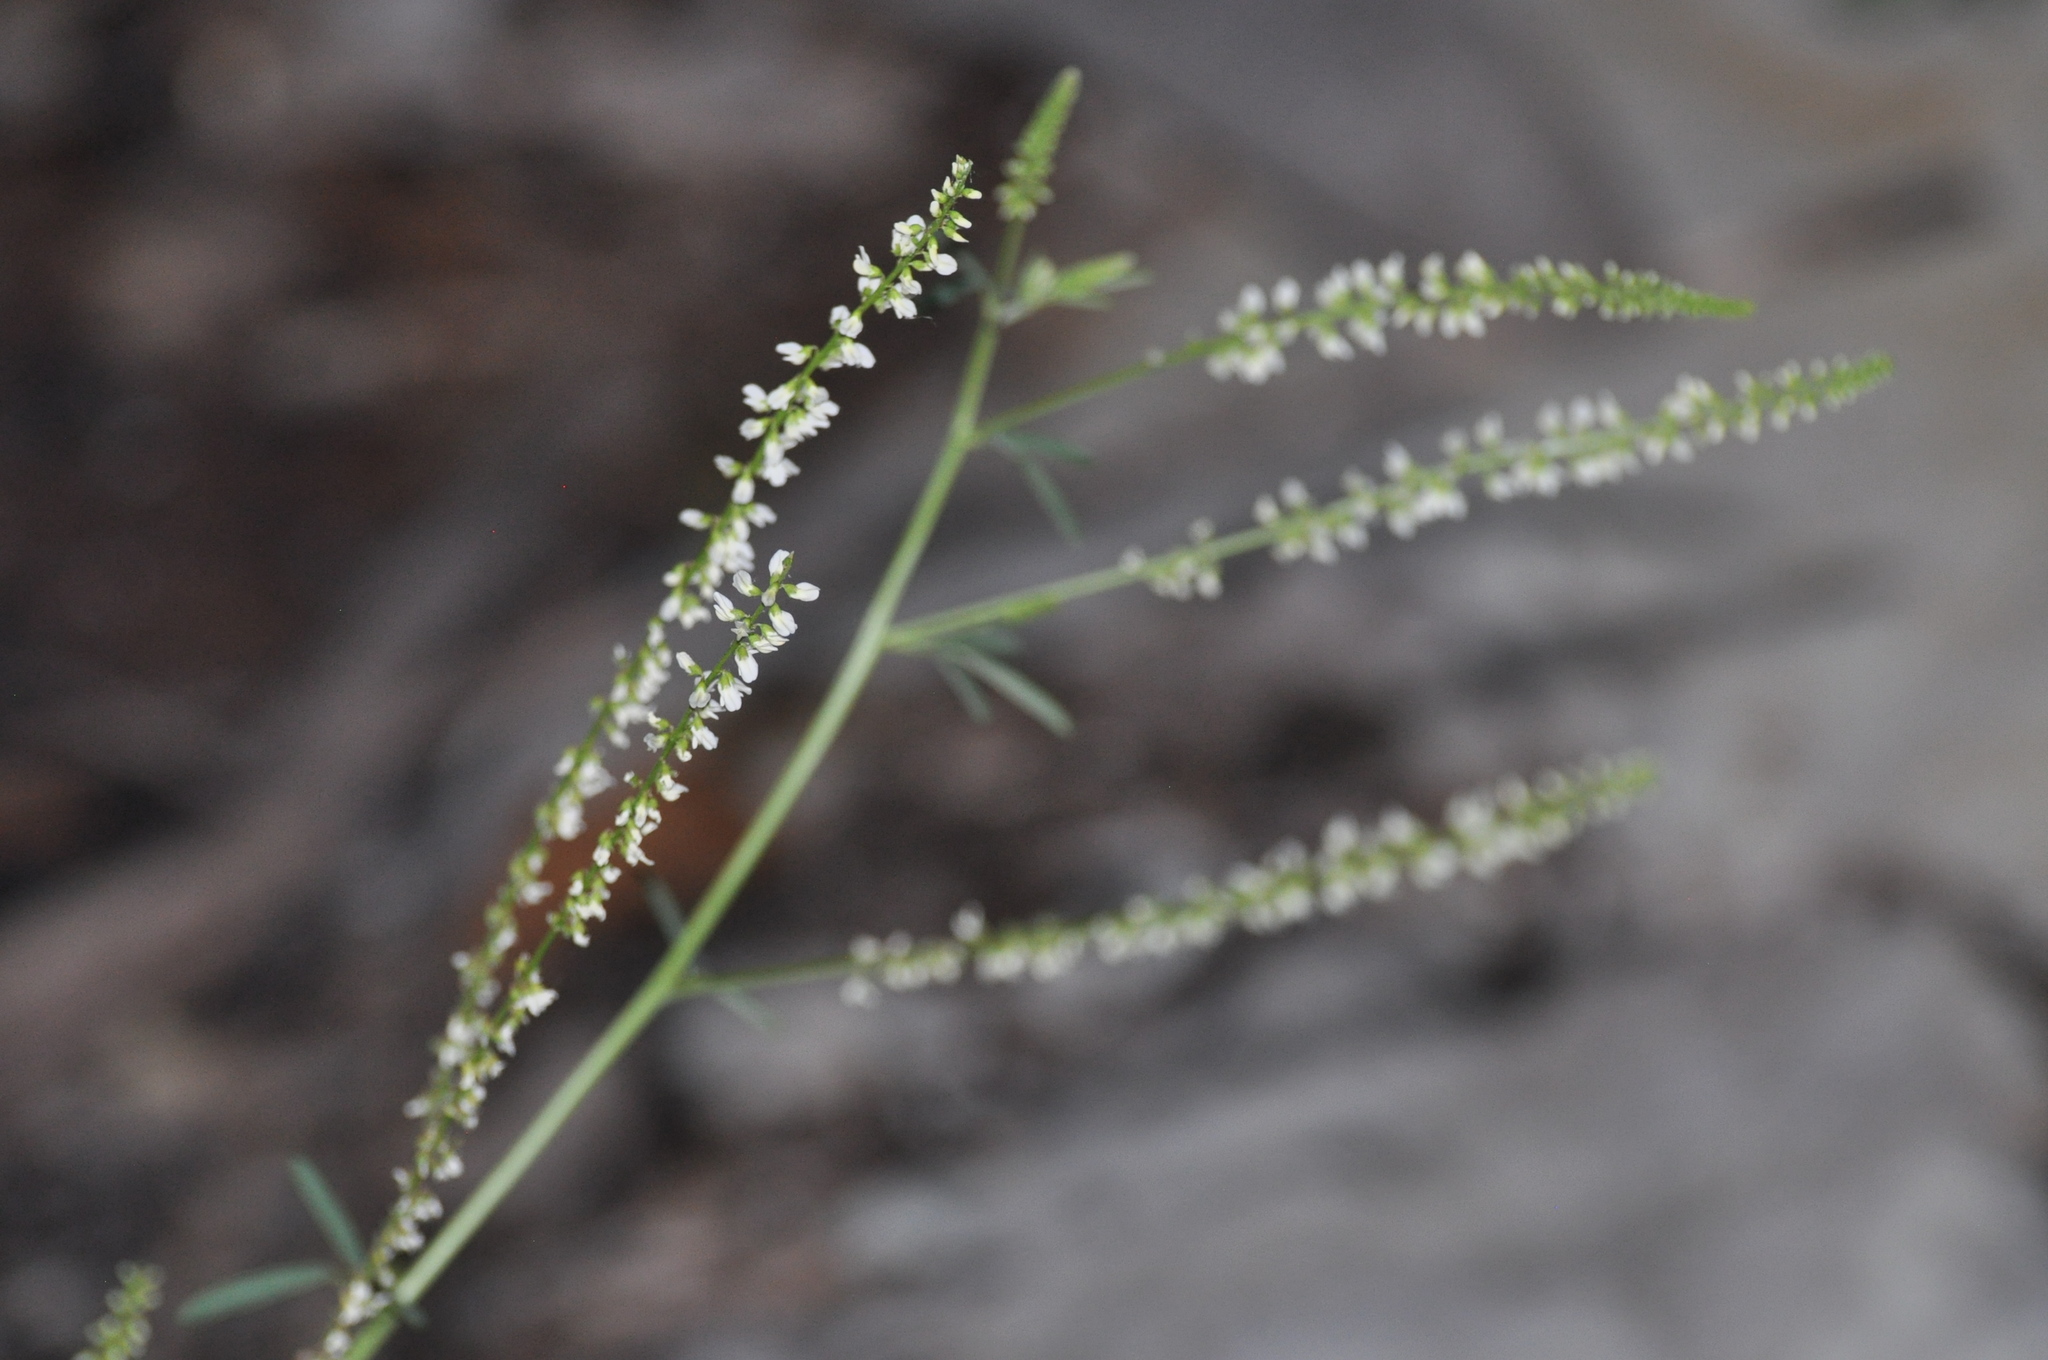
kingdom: Plantae
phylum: Tracheophyta
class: Magnoliopsida
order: Fabales
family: Fabaceae
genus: Melilotus
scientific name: Melilotus albus
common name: White melilot
